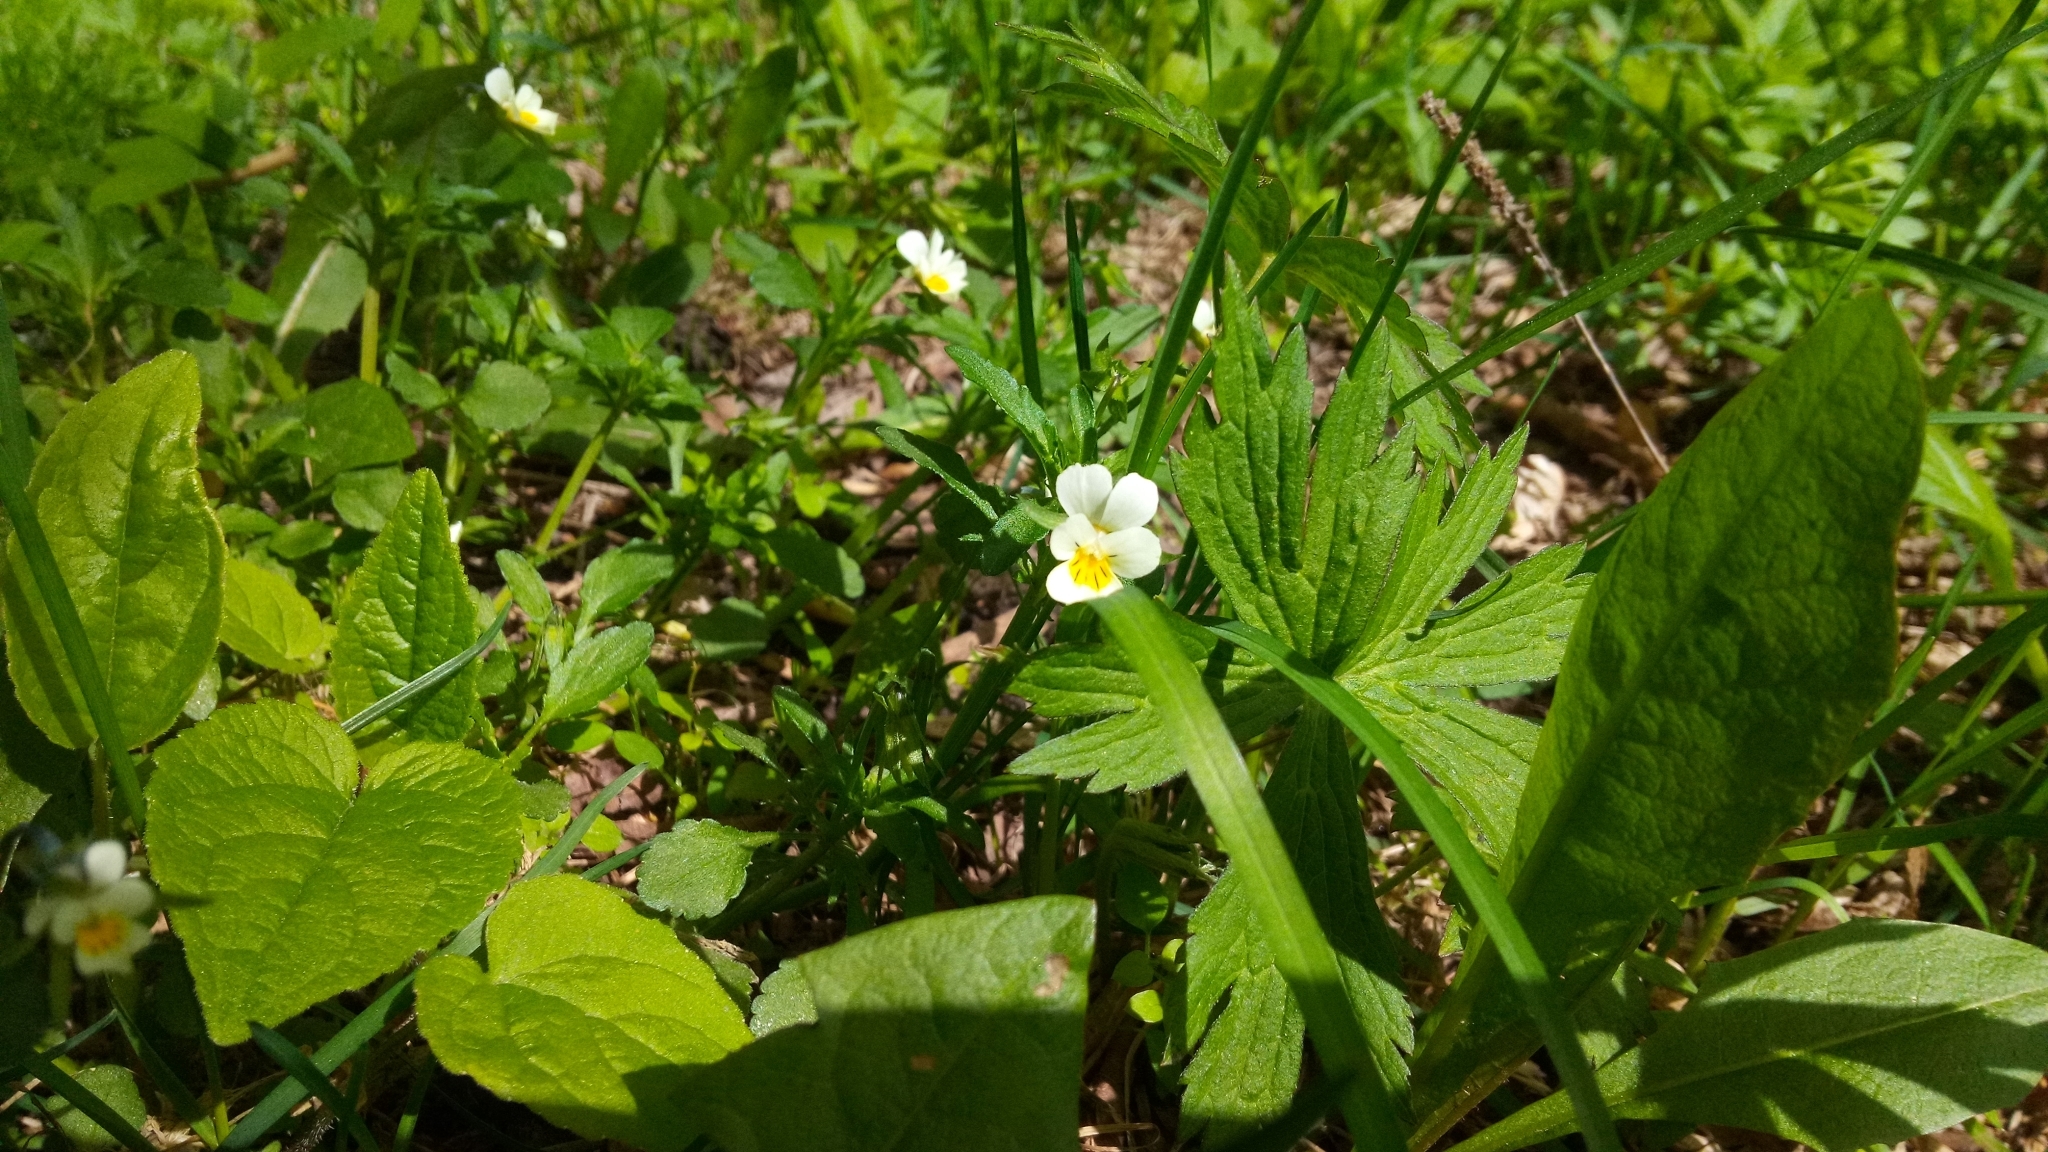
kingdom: Plantae
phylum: Tracheophyta
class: Magnoliopsida
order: Malpighiales
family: Violaceae
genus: Viola
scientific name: Viola arvensis
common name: Field pansy
